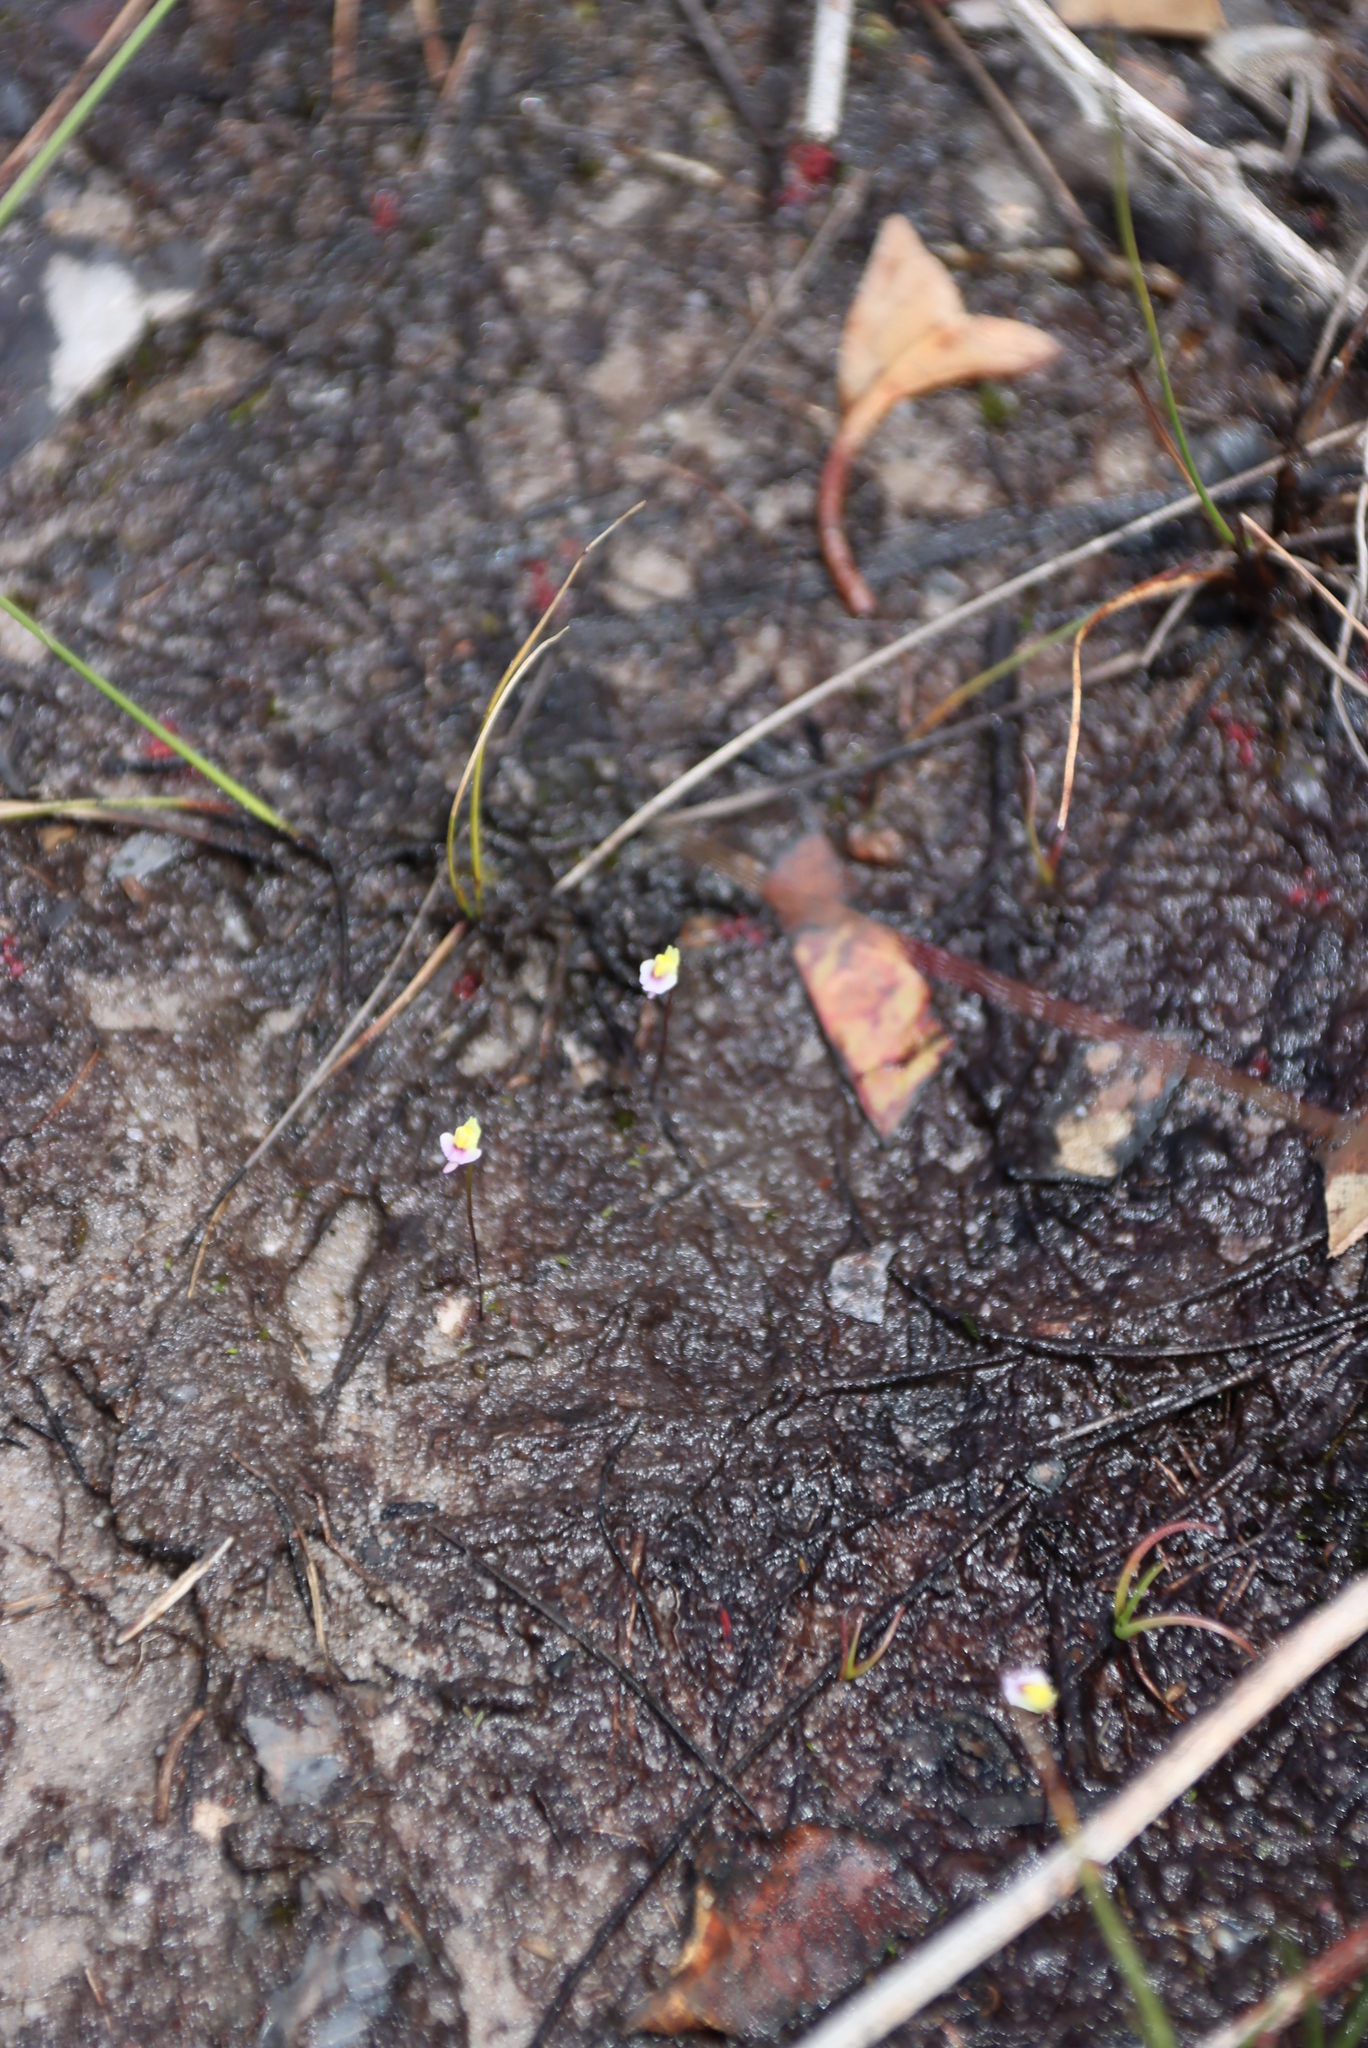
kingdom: Plantae
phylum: Tracheophyta
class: Magnoliopsida
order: Lamiales
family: Lentibulariaceae
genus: Utricularia
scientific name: Utricularia bisquamata
